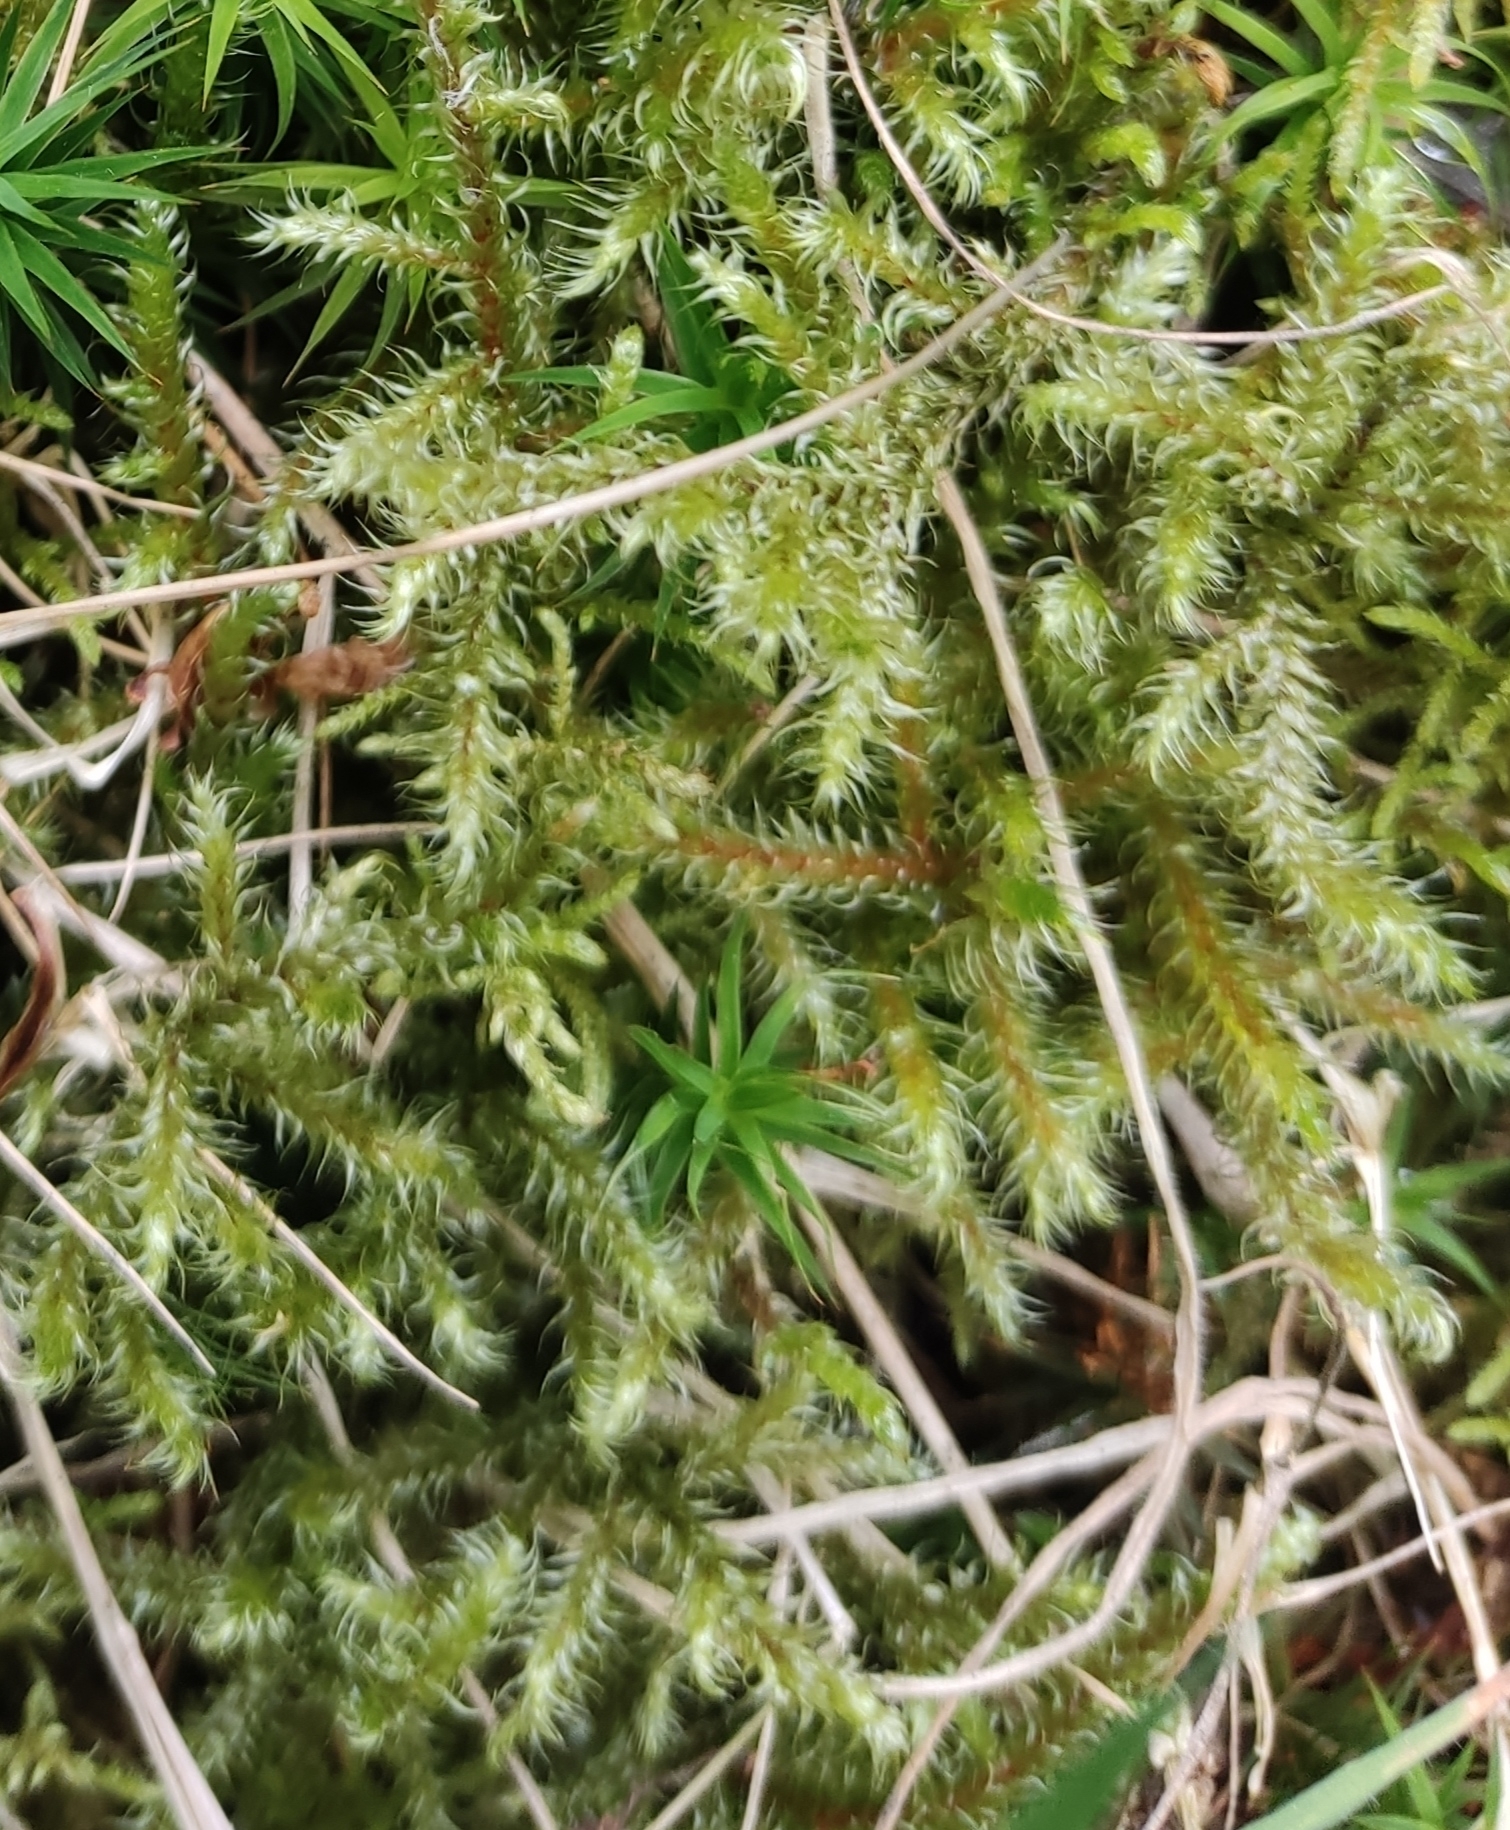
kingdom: Plantae
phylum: Bryophyta
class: Bryopsida
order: Hypnales
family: Hylocomiaceae
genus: Rhytidiadelphus
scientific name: Rhytidiadelphus loreus
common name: Lanky moss
